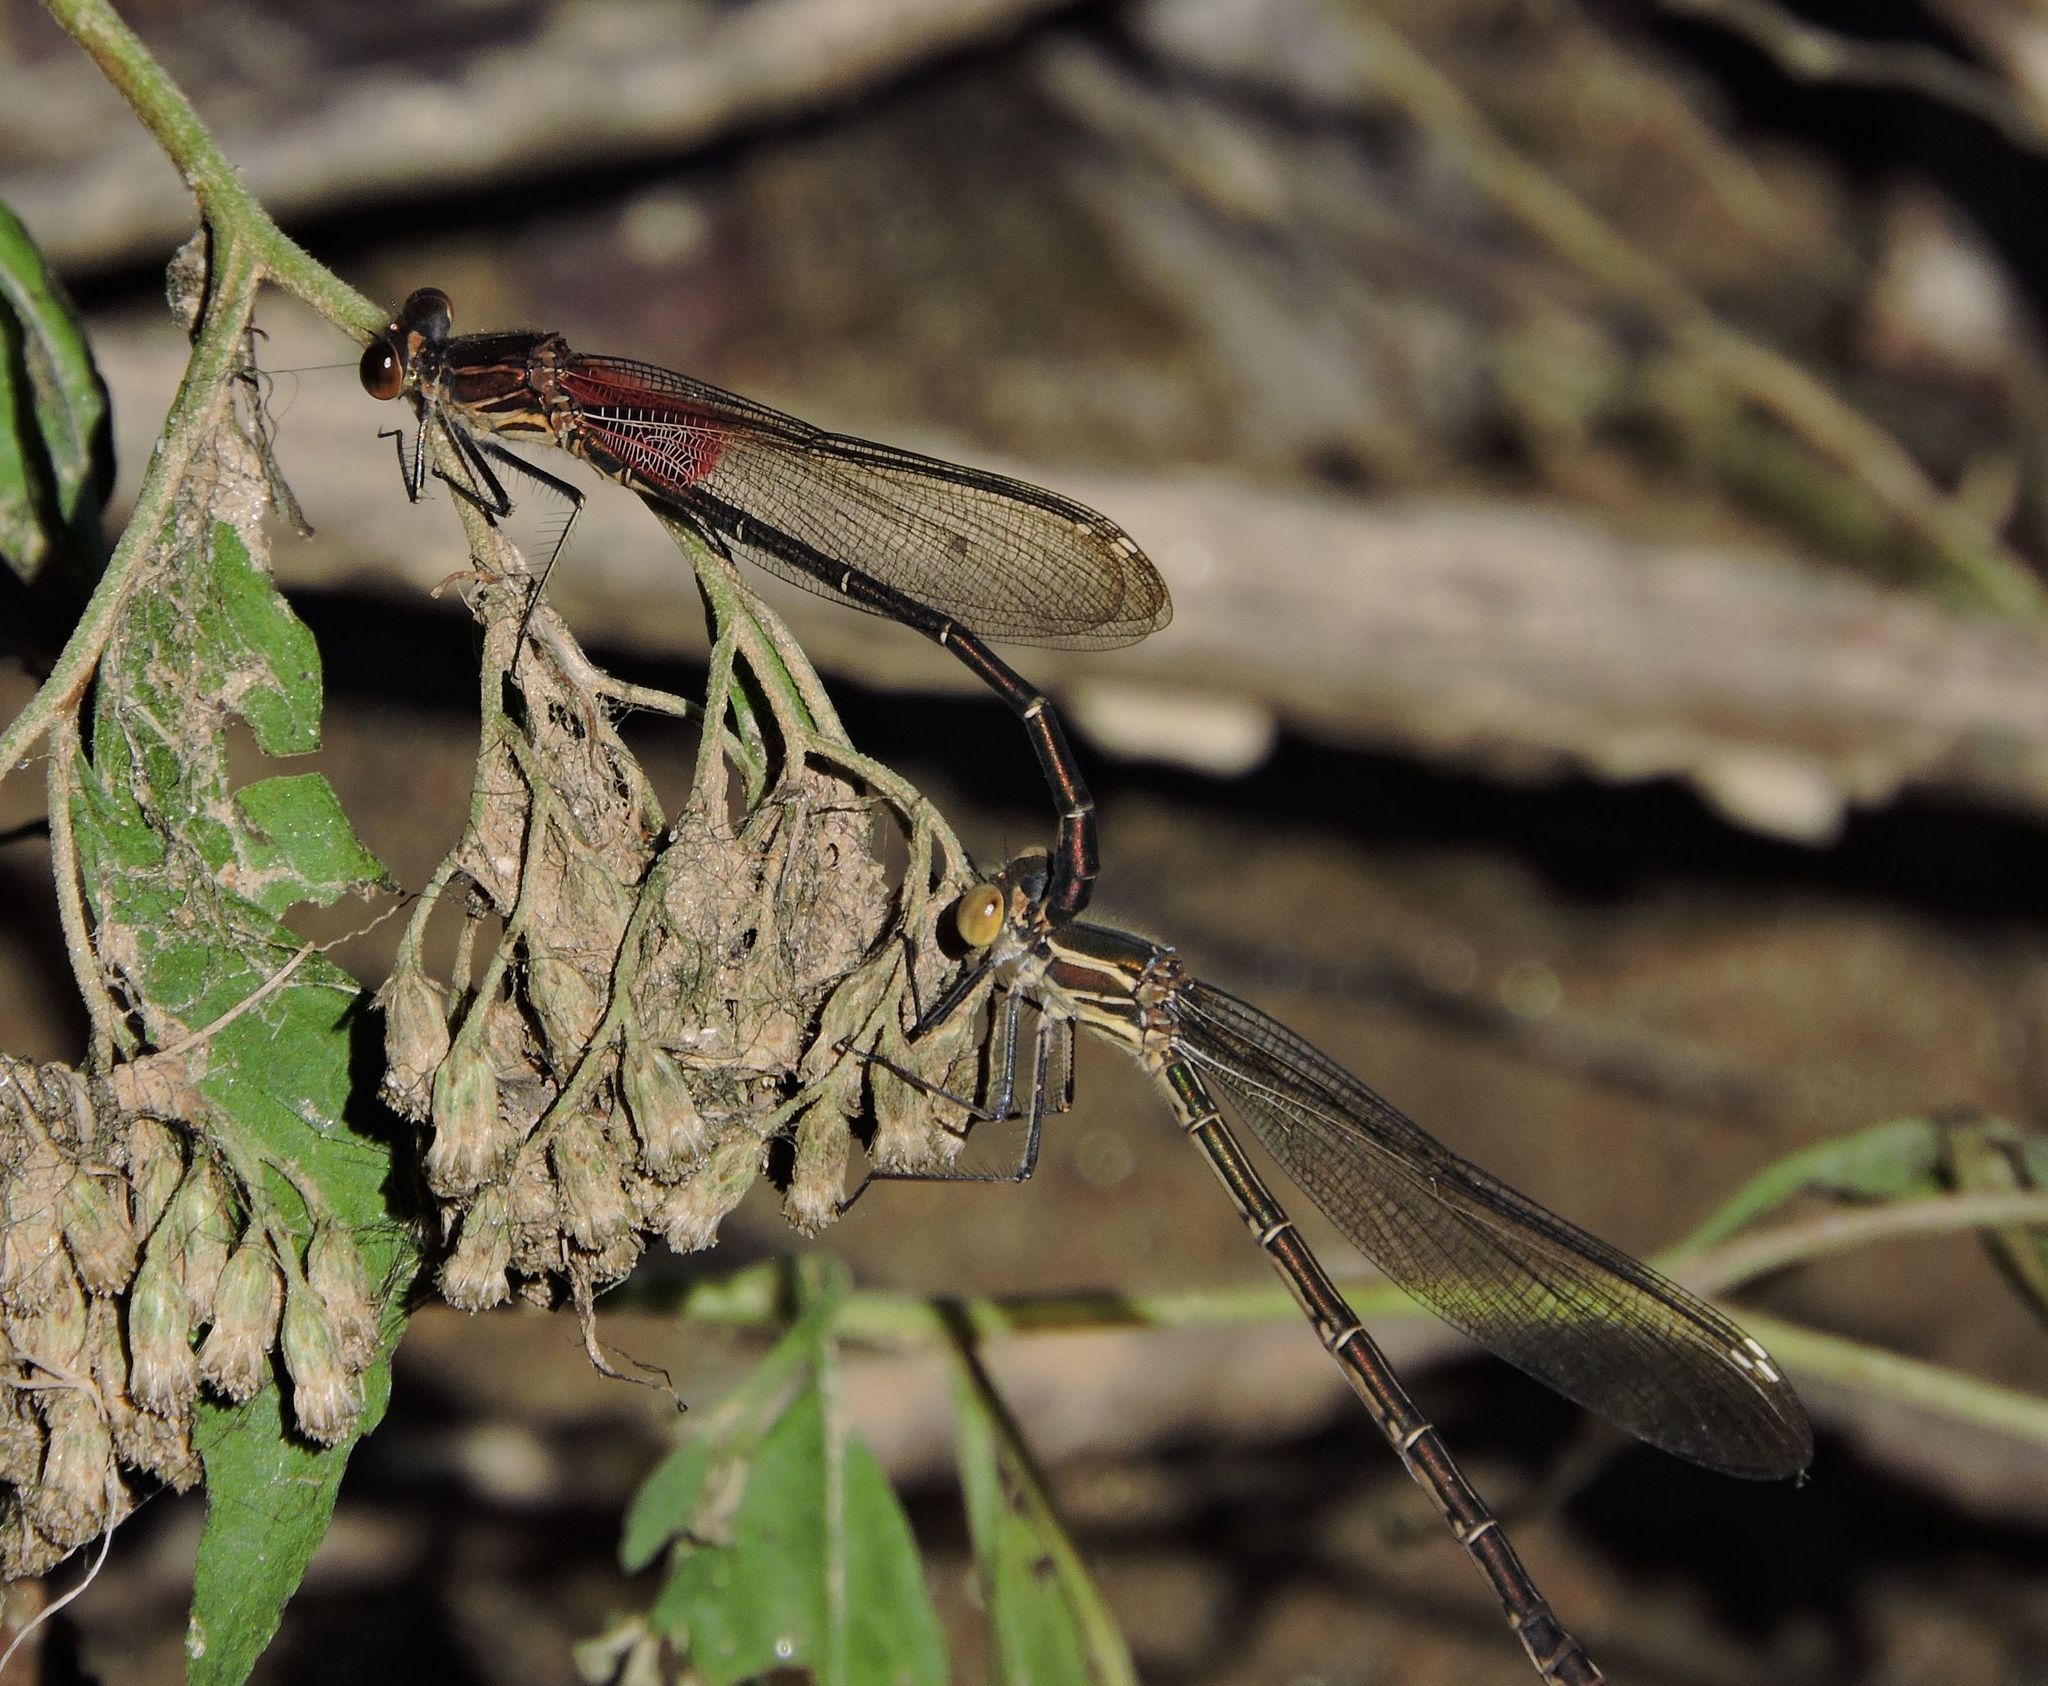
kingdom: Animalia
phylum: Arthropoda
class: Insecta
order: Odonata
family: Calopterygidae
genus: Hetaerina
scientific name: Hetaerina americana
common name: American rubyspot
